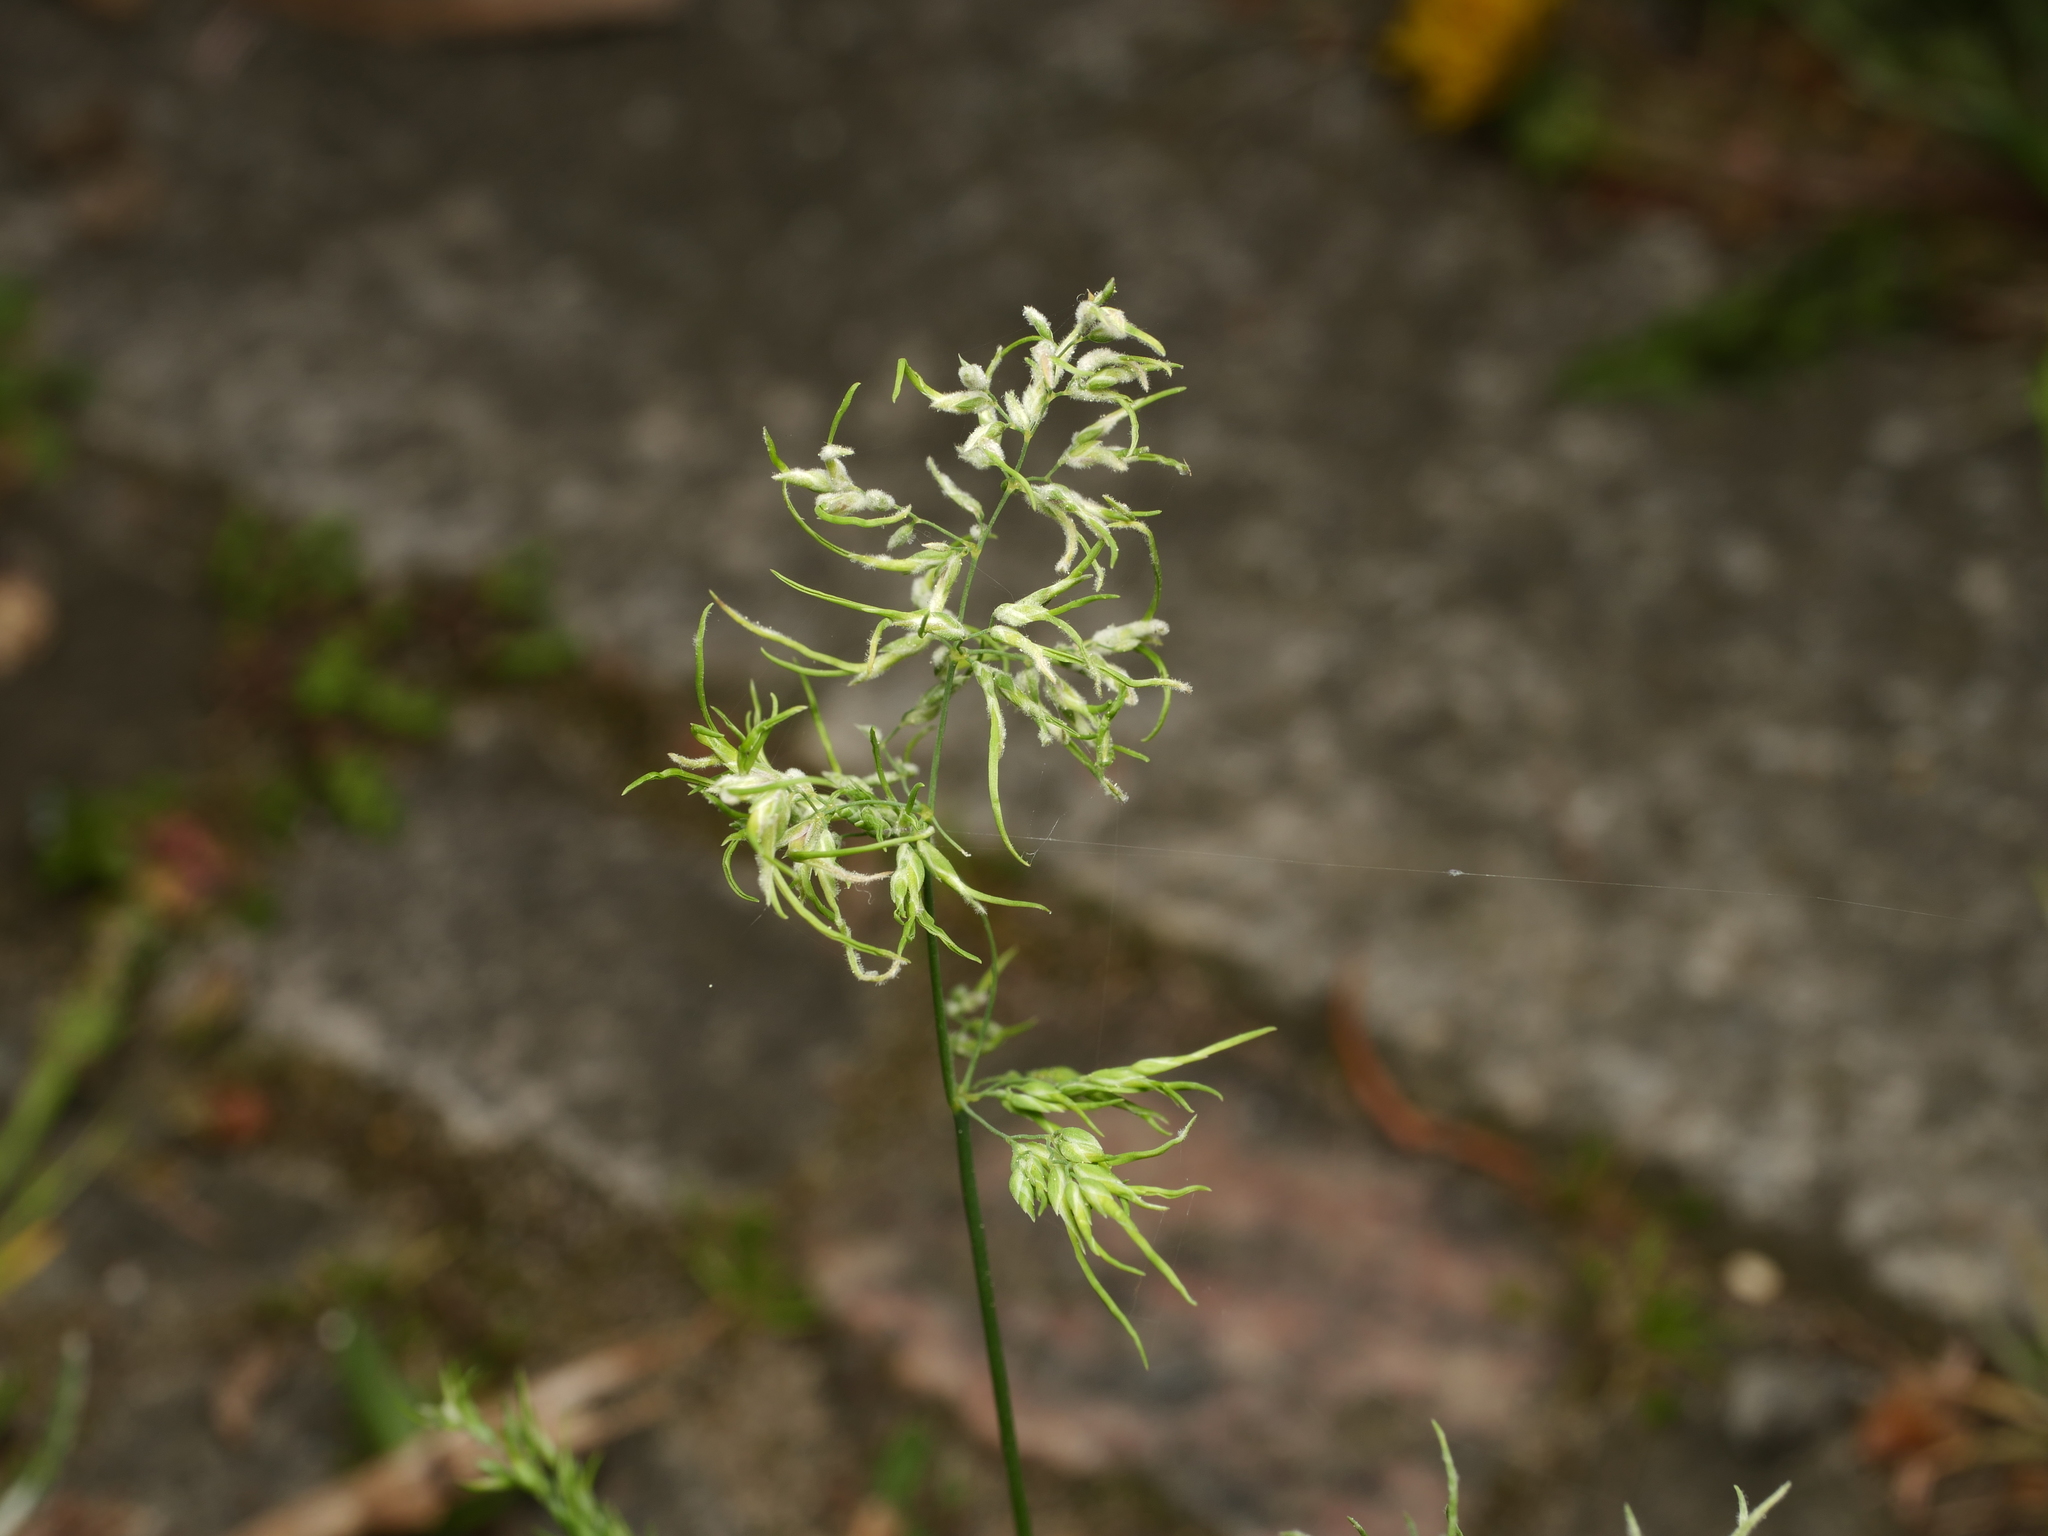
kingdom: Plantae
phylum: Tracheophyta
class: Liliopsida
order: Poales
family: Poaceae
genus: Poa
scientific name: Poa bulbosa
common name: Bulbous bluegrass
